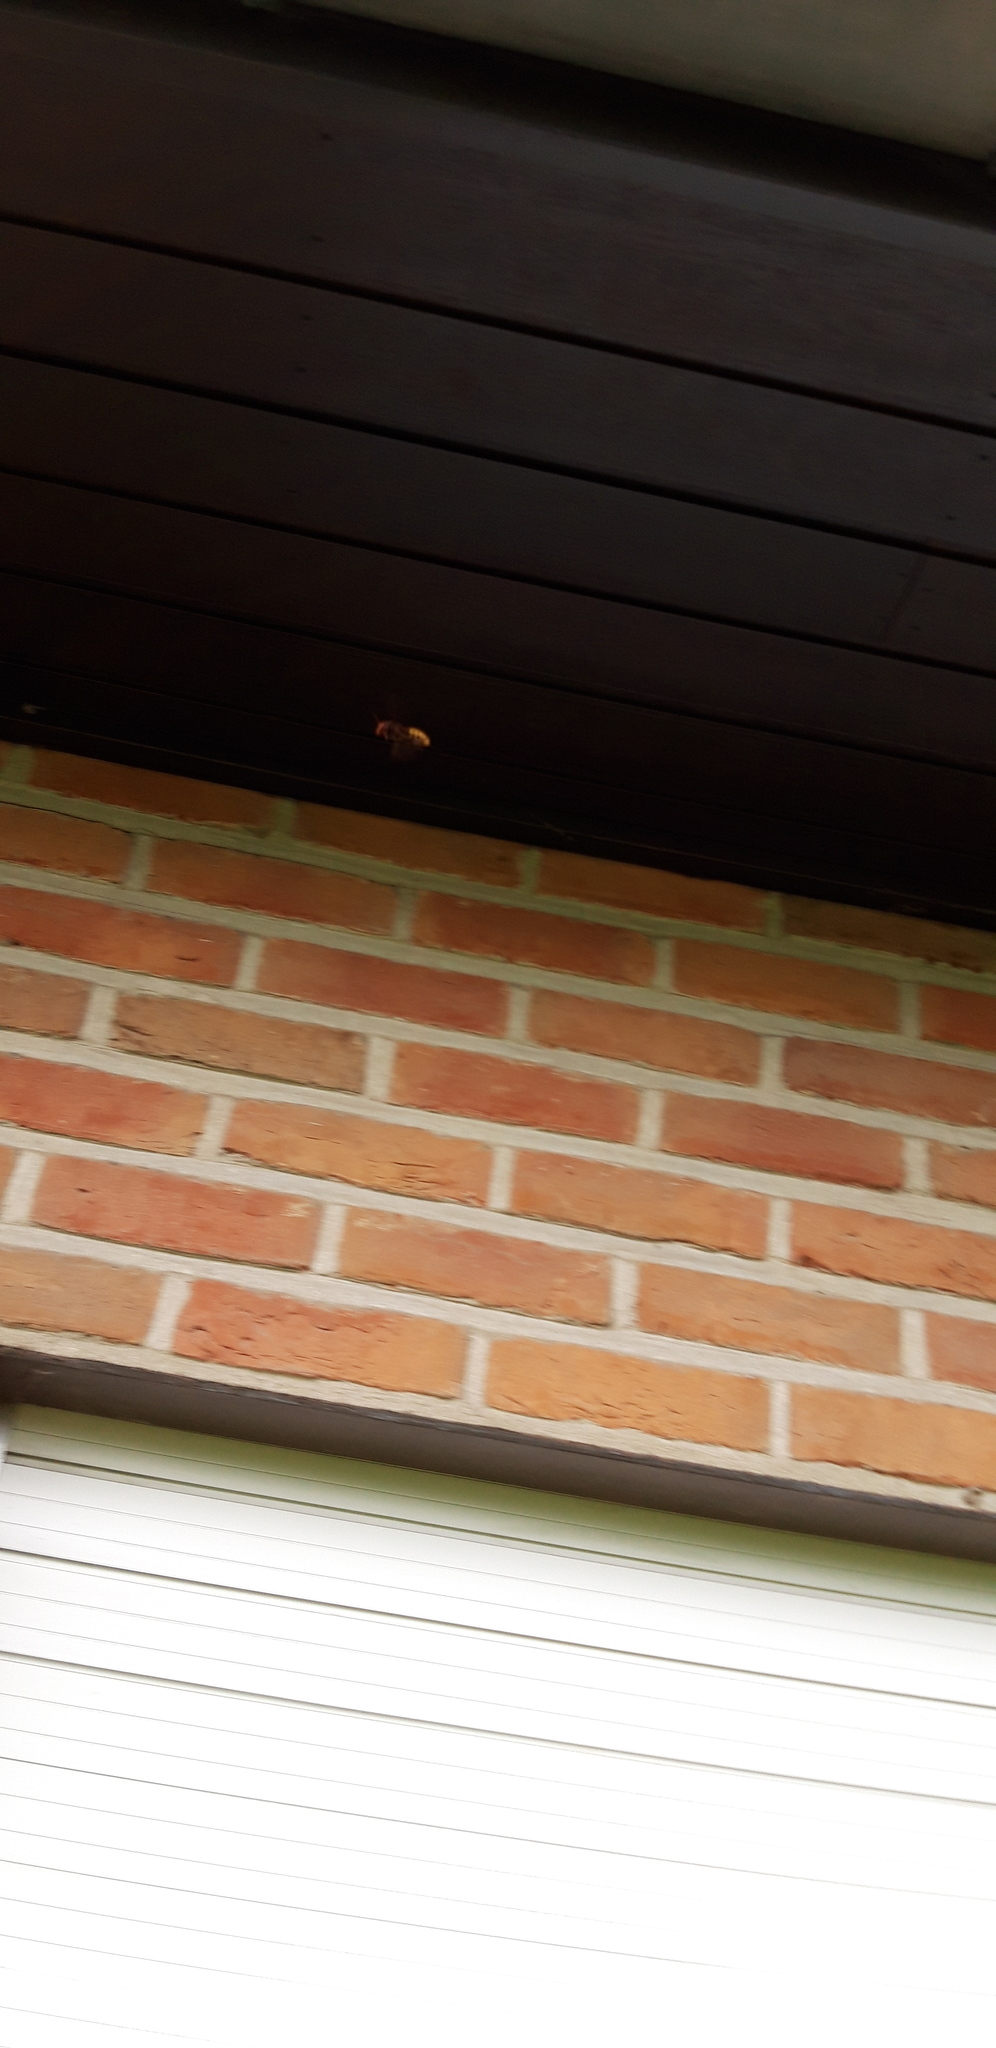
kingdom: Animalia
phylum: Arthropoda
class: Insecta
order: Hymenoptera
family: Vespidae
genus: Vespa
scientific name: Vespa crabro
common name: Hornet
